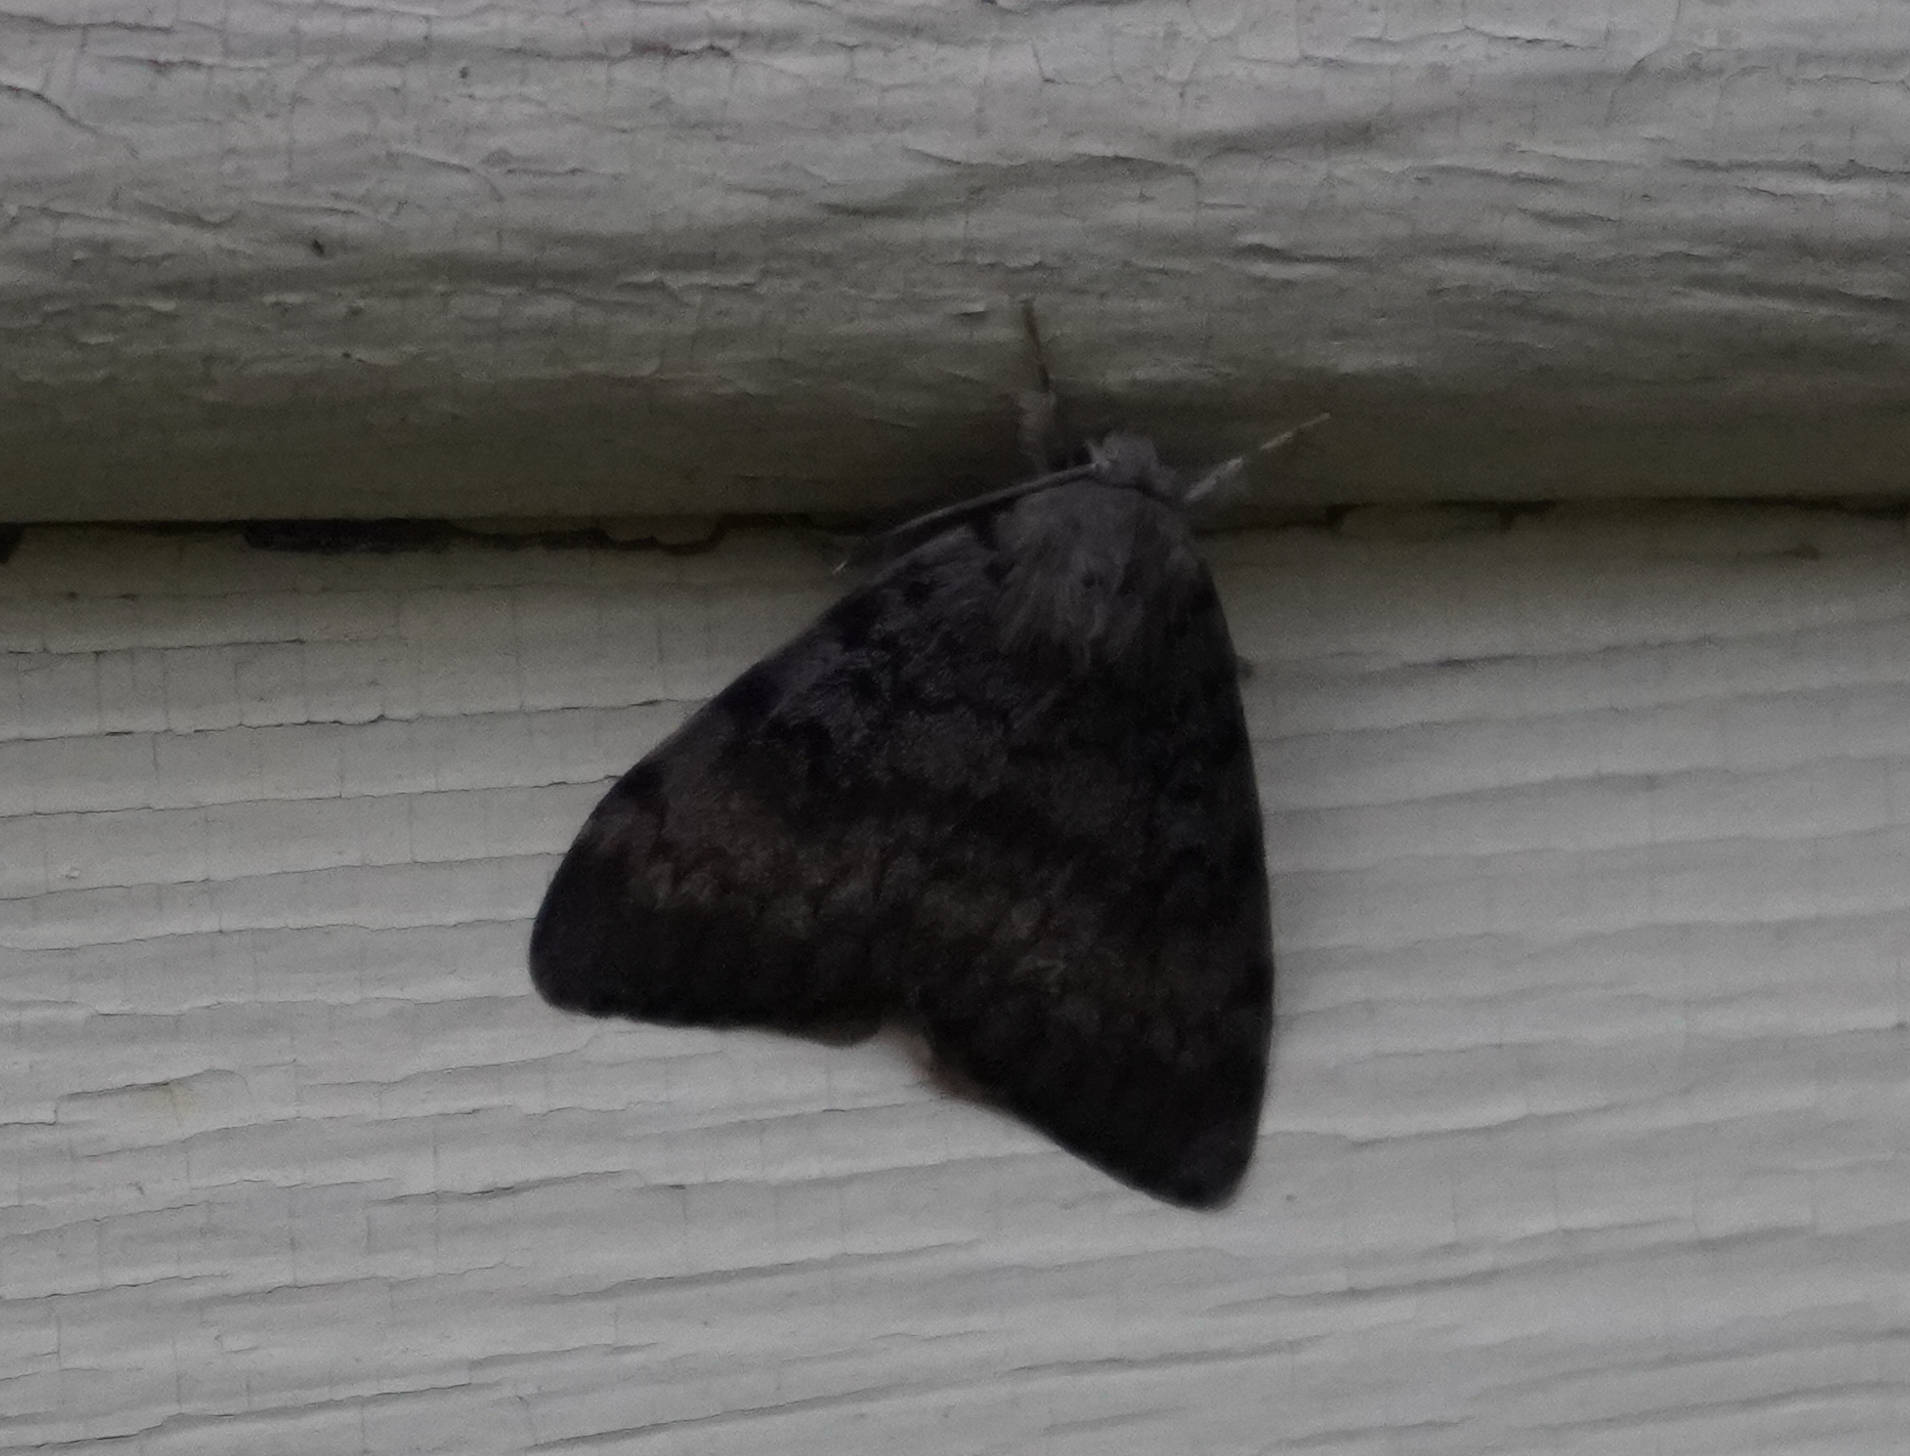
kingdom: Animalia
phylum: Arthropoda
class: Insecta
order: Lepidoptera
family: Erebidae
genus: Lymantria
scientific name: Lymantria dispar
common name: Gypsy moth
